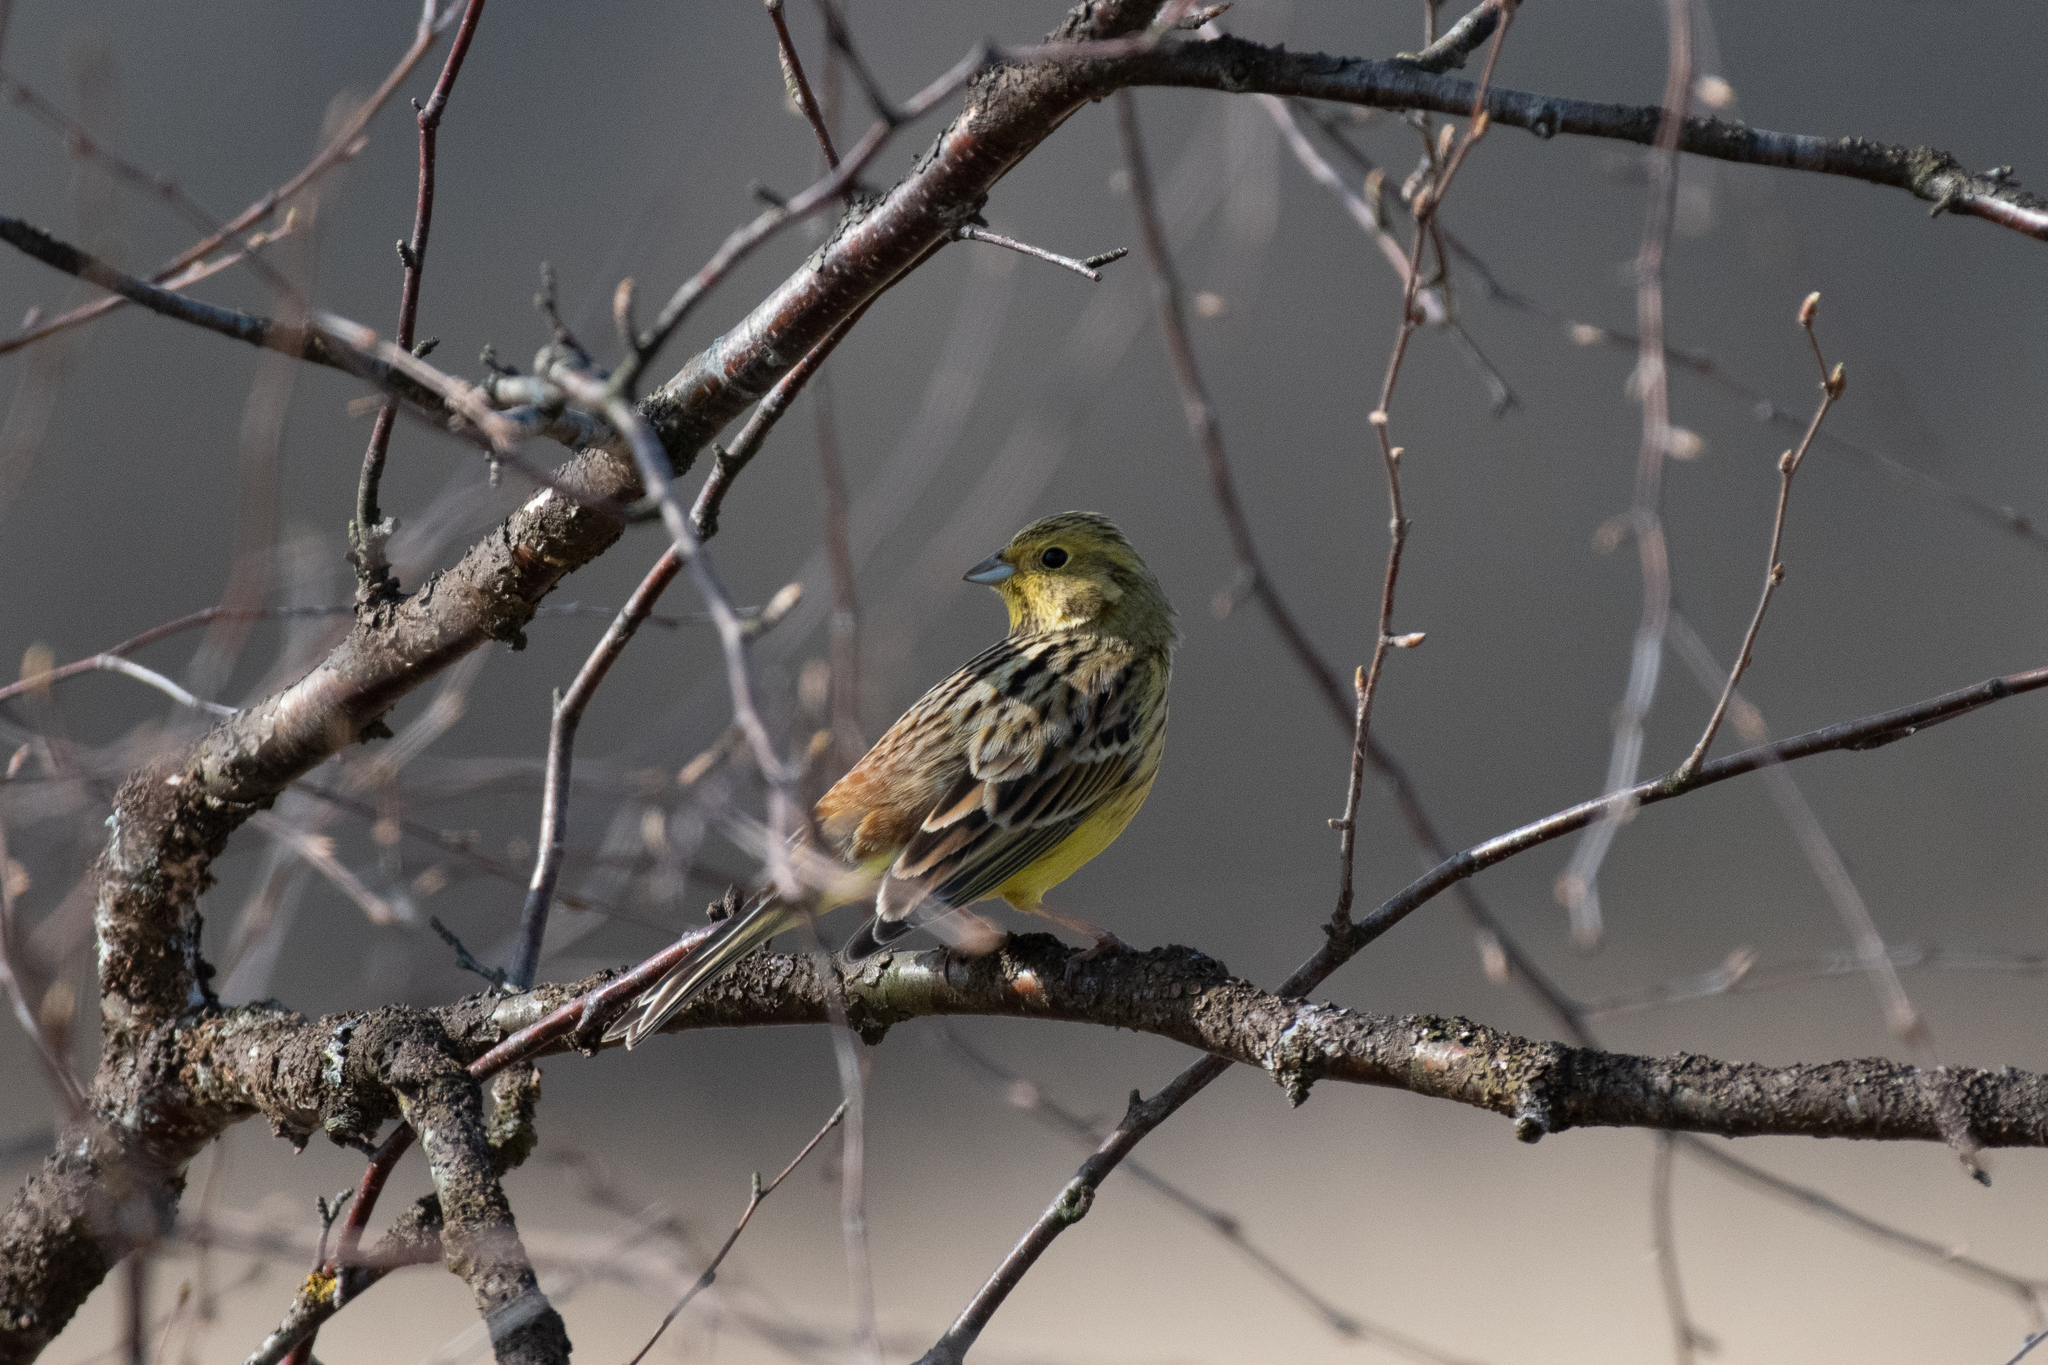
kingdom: Animalia
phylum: Chordata
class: Aves
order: Passeriformes
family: Emberizidae
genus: Emberiza
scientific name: Emberiza citrinella
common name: Yellowhammer
